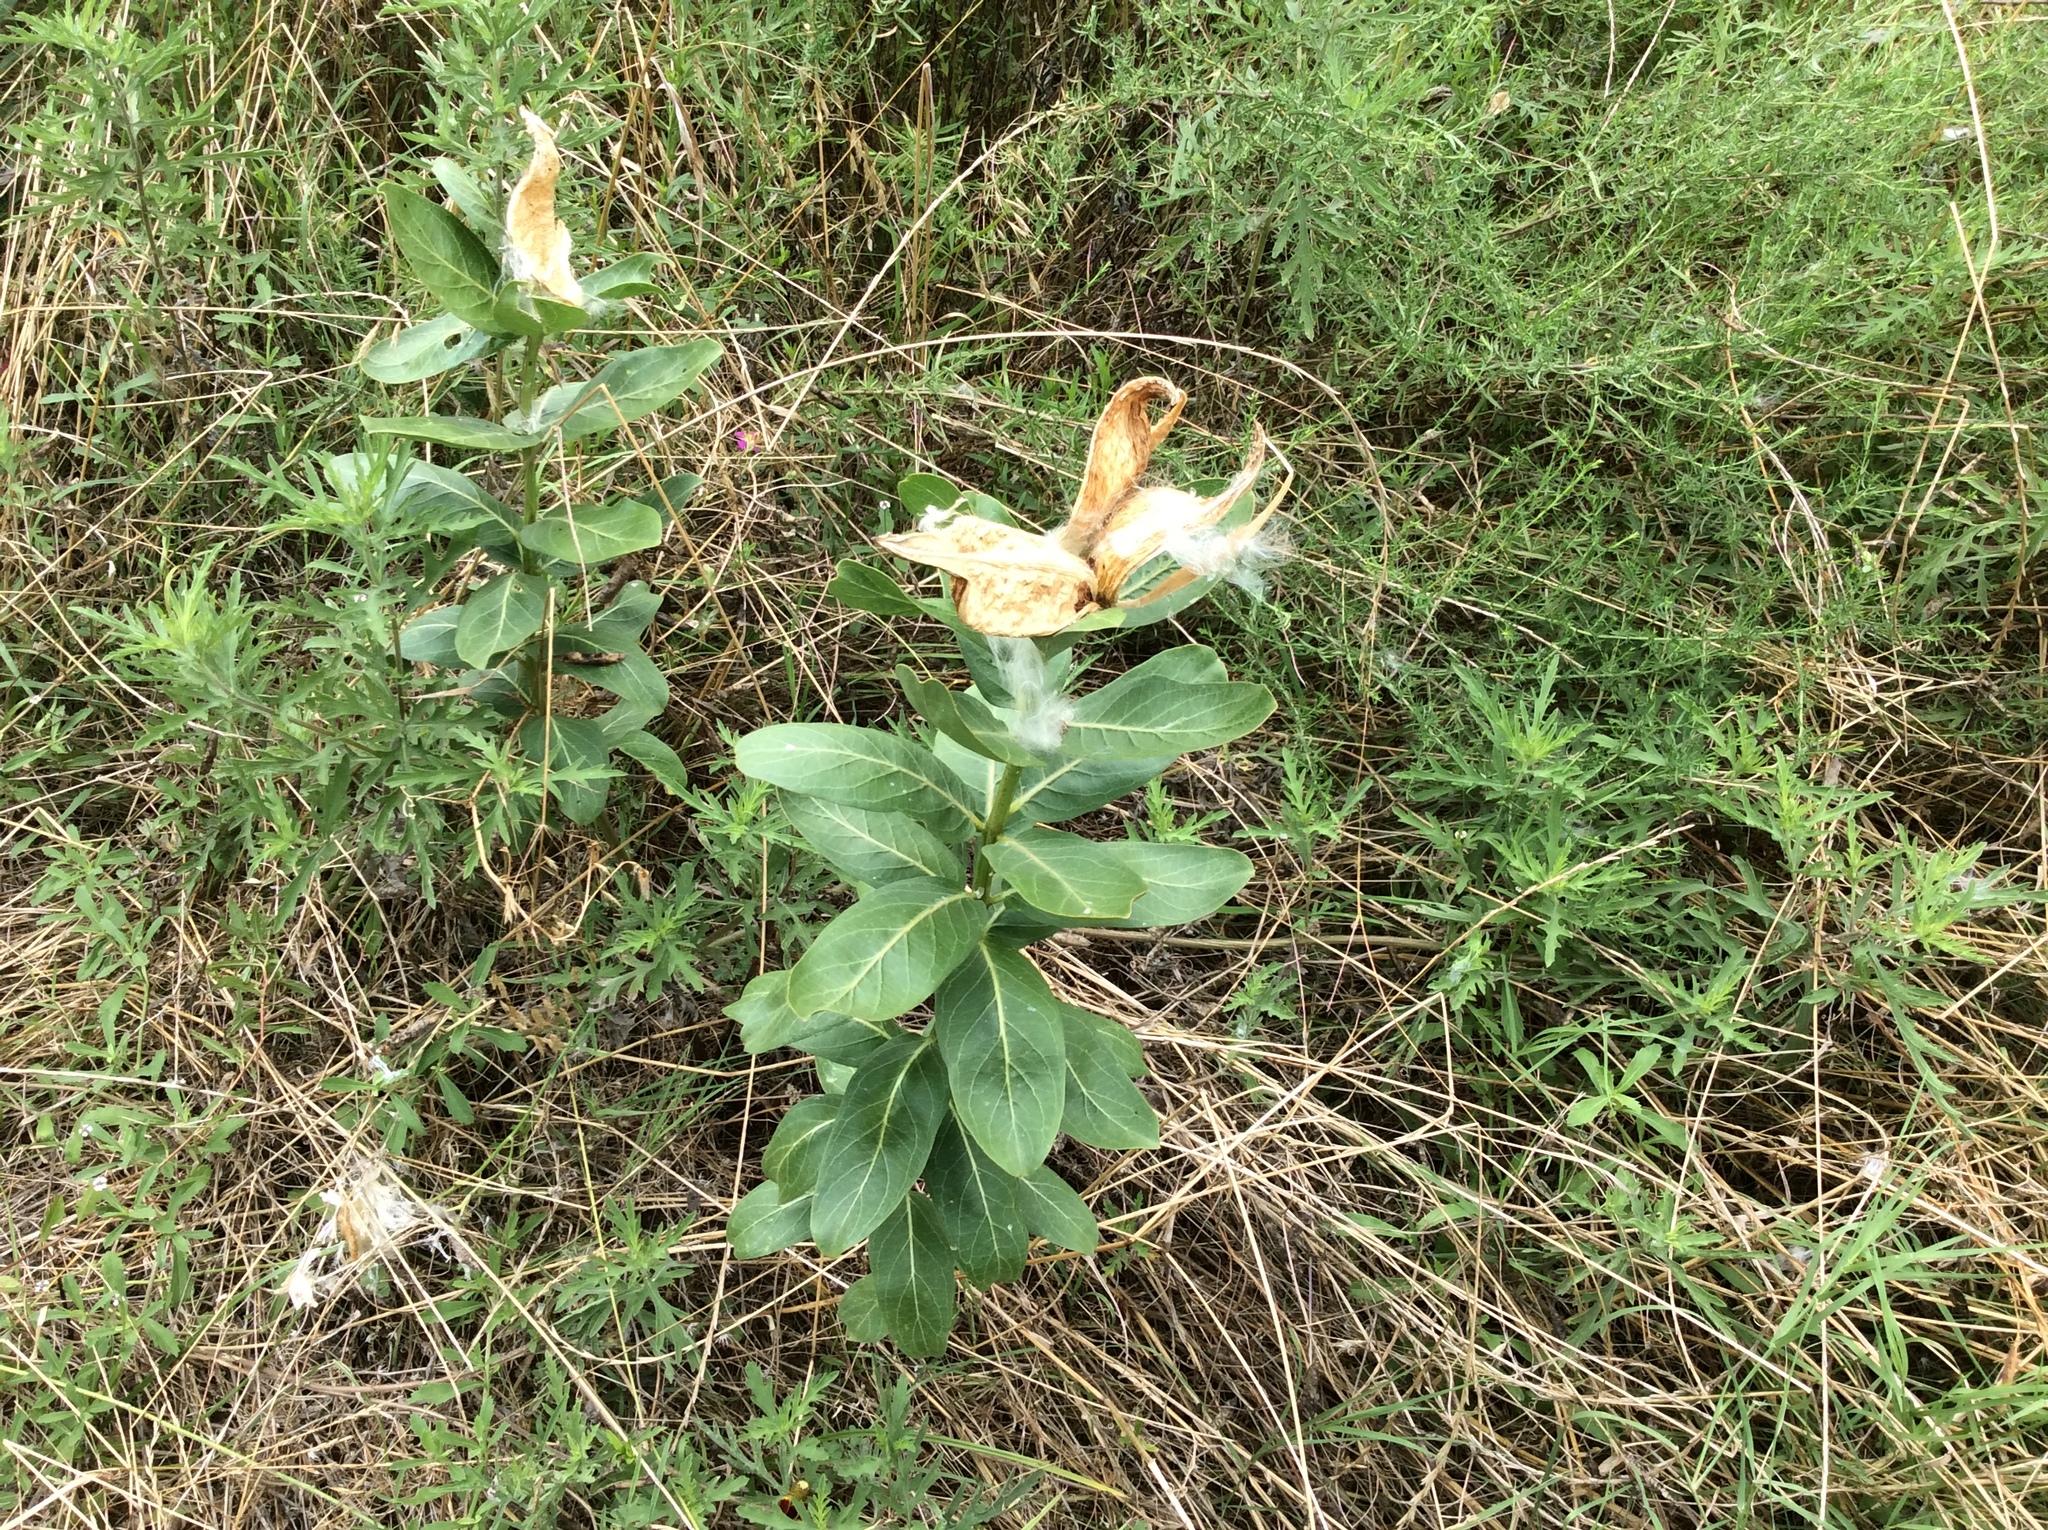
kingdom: Plantae
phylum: Tracheophyta
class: Magnoliopsida
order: Gentianales
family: Apocynaceae
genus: Asclepias
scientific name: Asclepias viridis
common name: Antelope-horns
